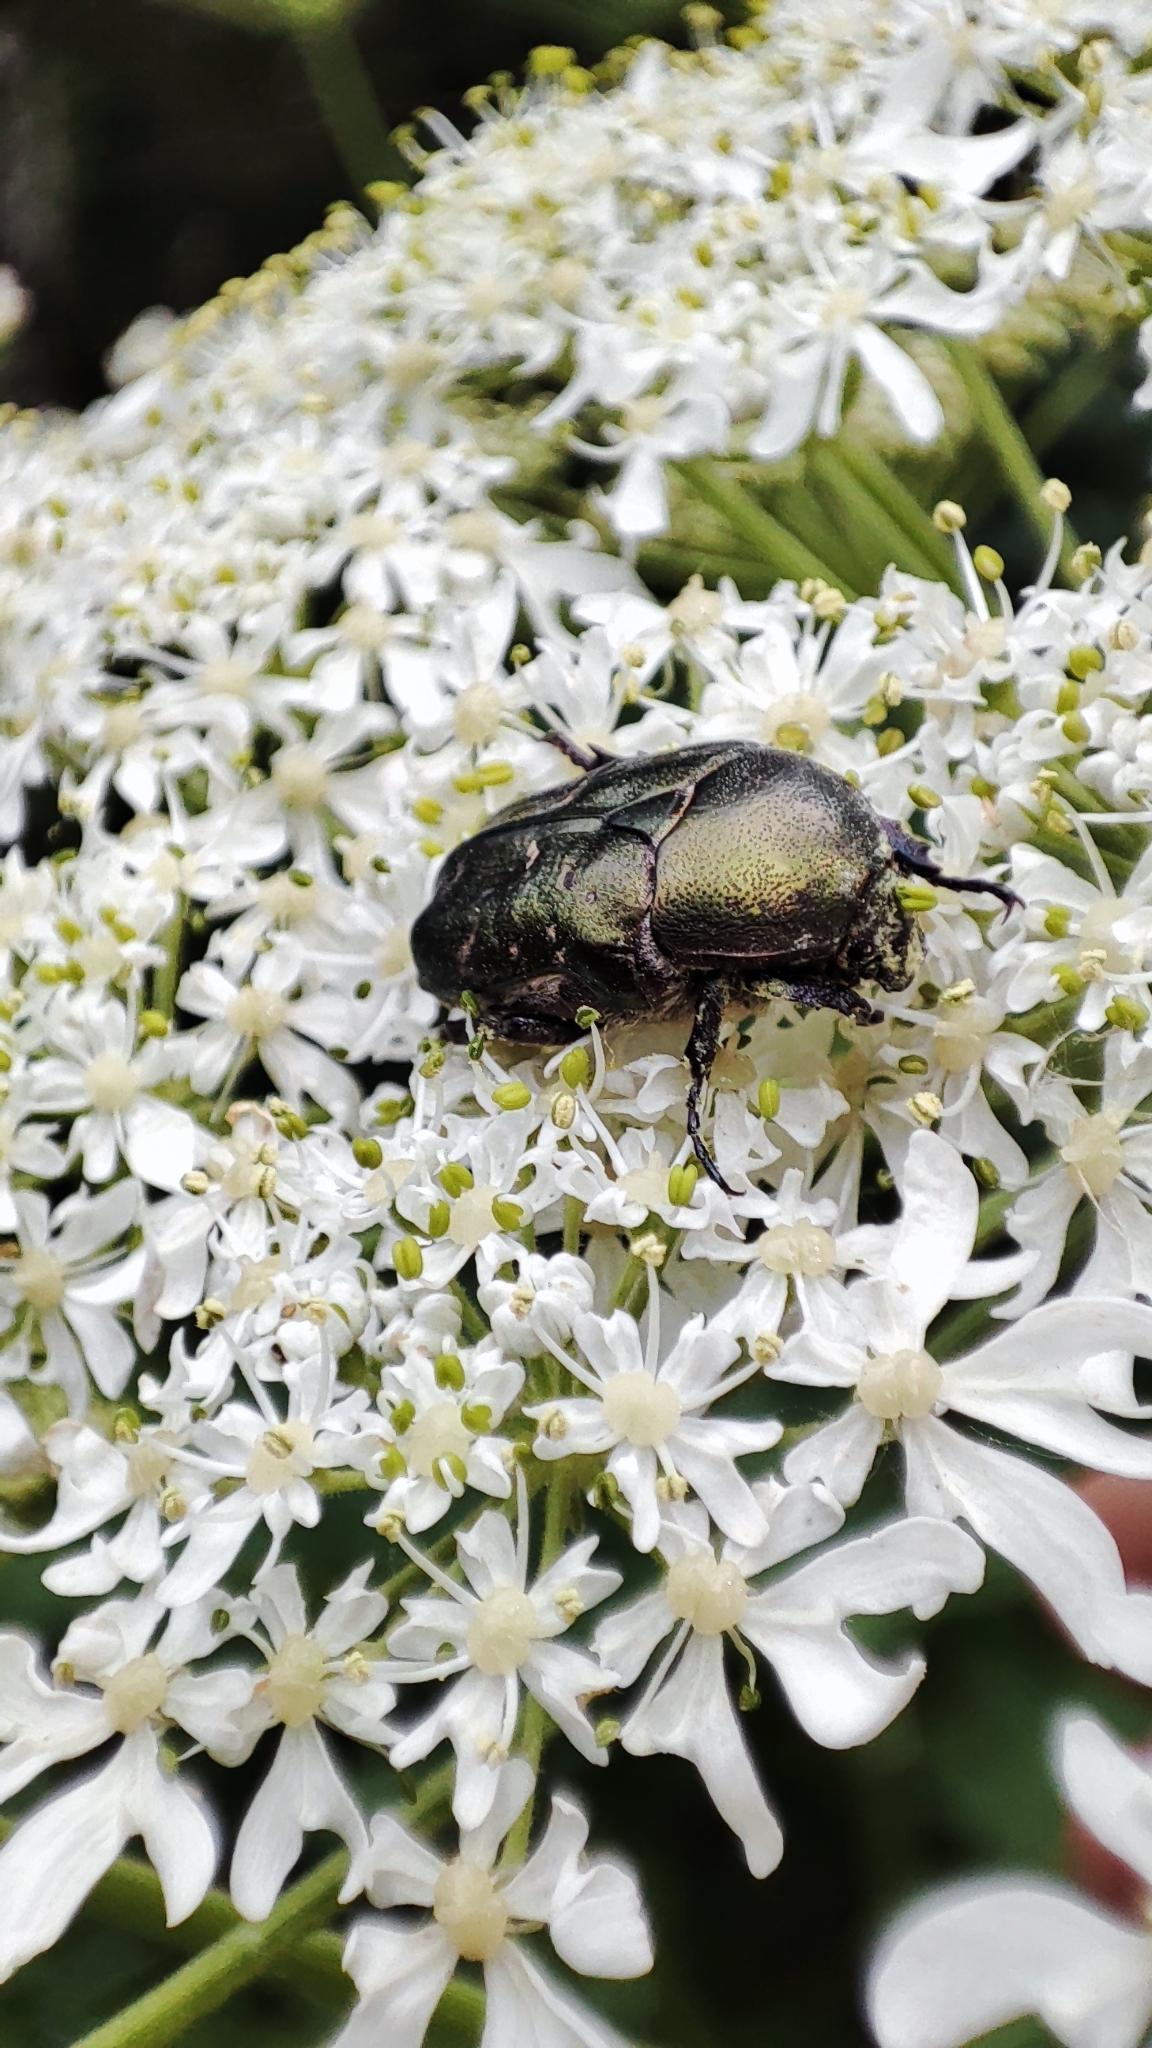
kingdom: Animalia
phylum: Arthropoda
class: Insecta
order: Coleoptera
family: Scarabaeidae
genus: Protaetia
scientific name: Protaetia cuprea
